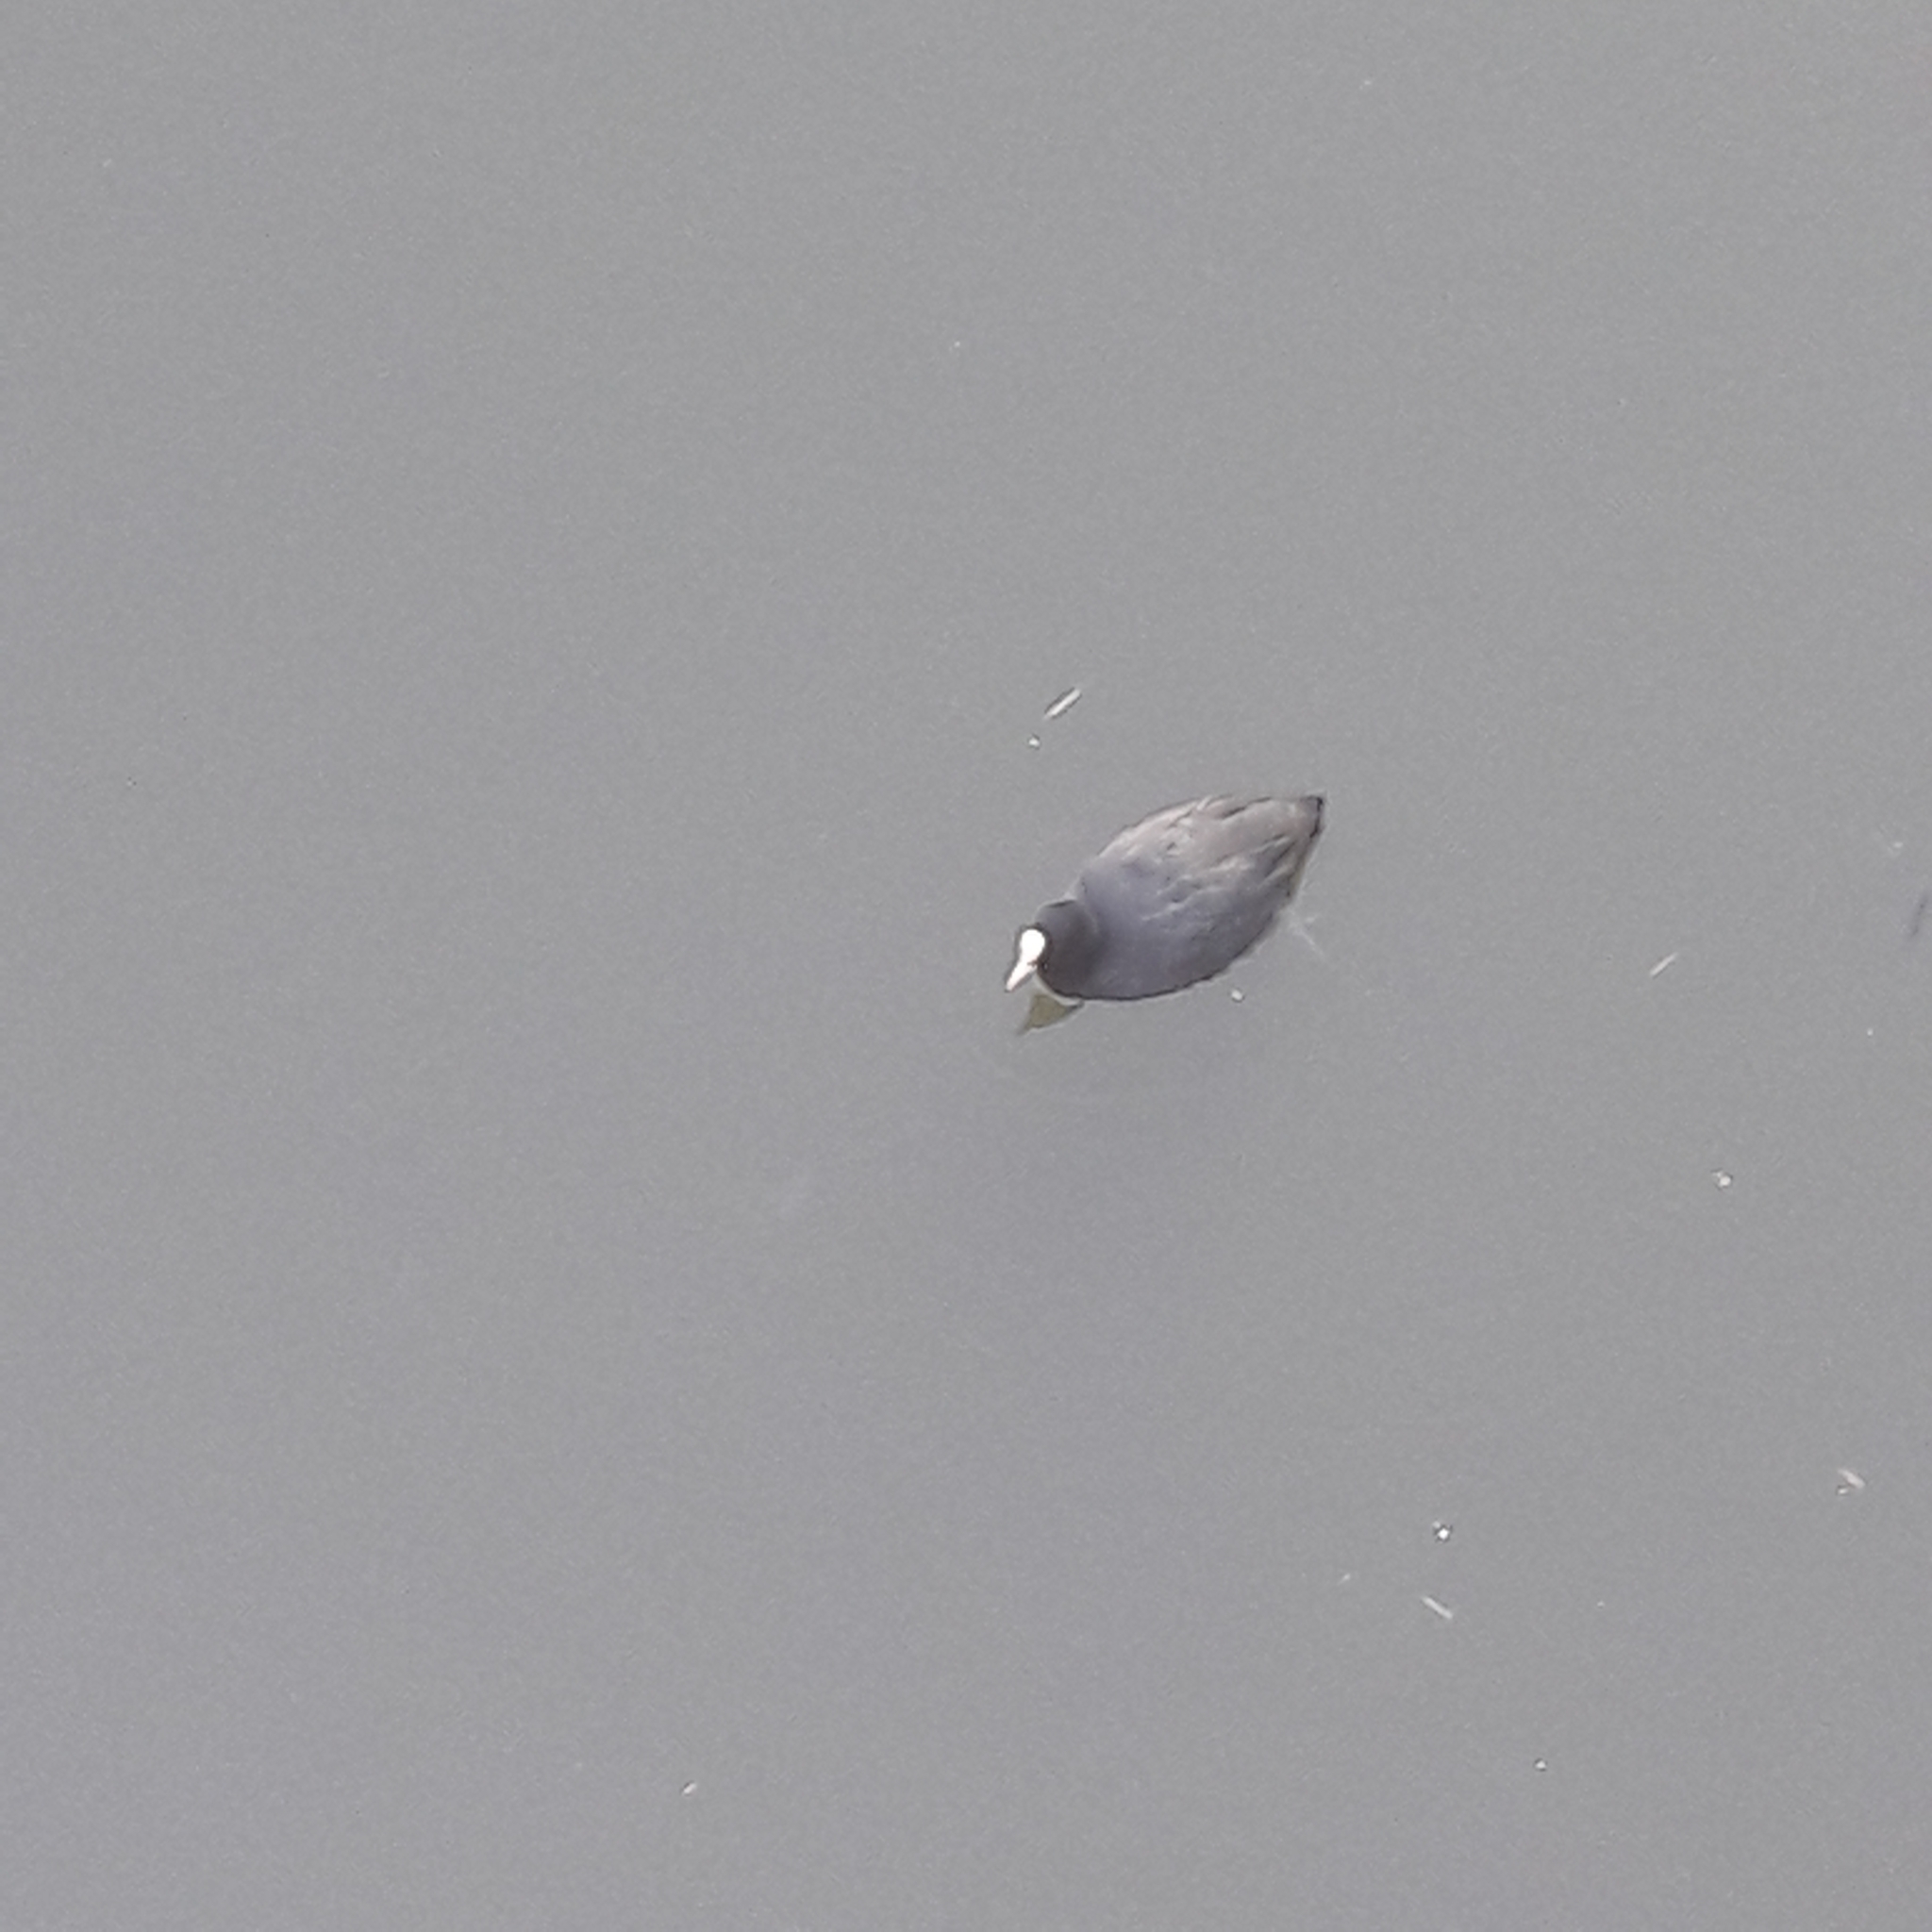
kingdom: Animalia
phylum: Chordata
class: Aves
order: Gruiformes
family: Rallidae
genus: Fulica
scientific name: Fulica atra
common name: Eurasian coot
